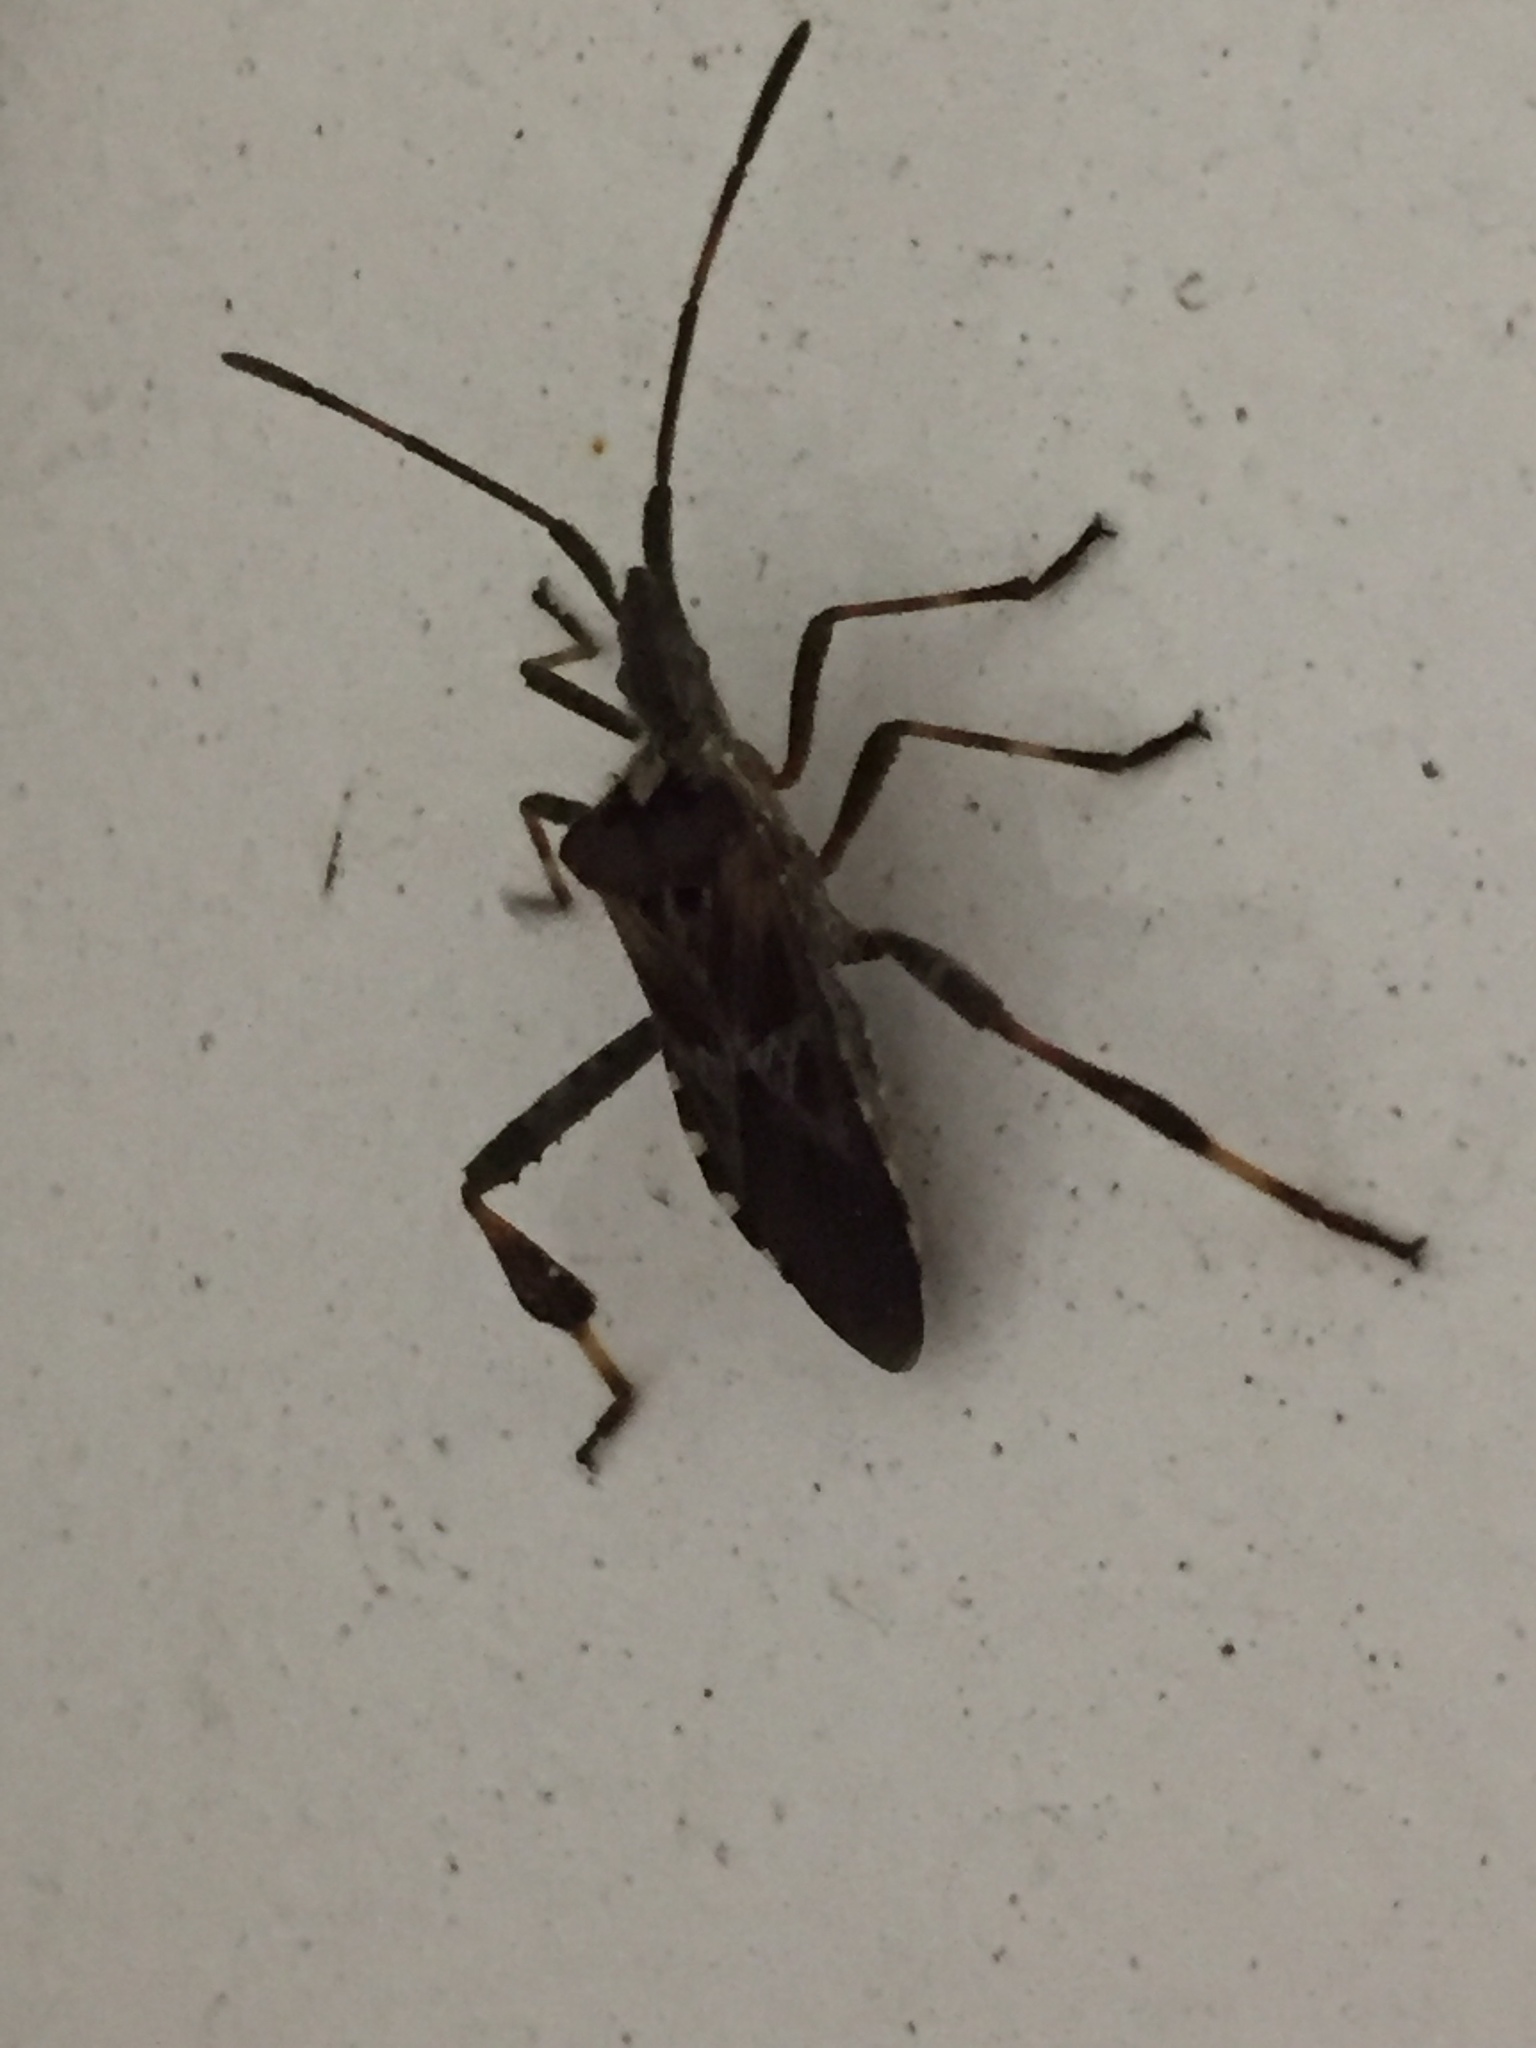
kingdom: Animalia
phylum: Arthropoda
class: Insecta
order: Hemiptera
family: Coreidae
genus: Leptoglossus
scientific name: Leptoglossus occidentalis
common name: Western conifer-seed bug
